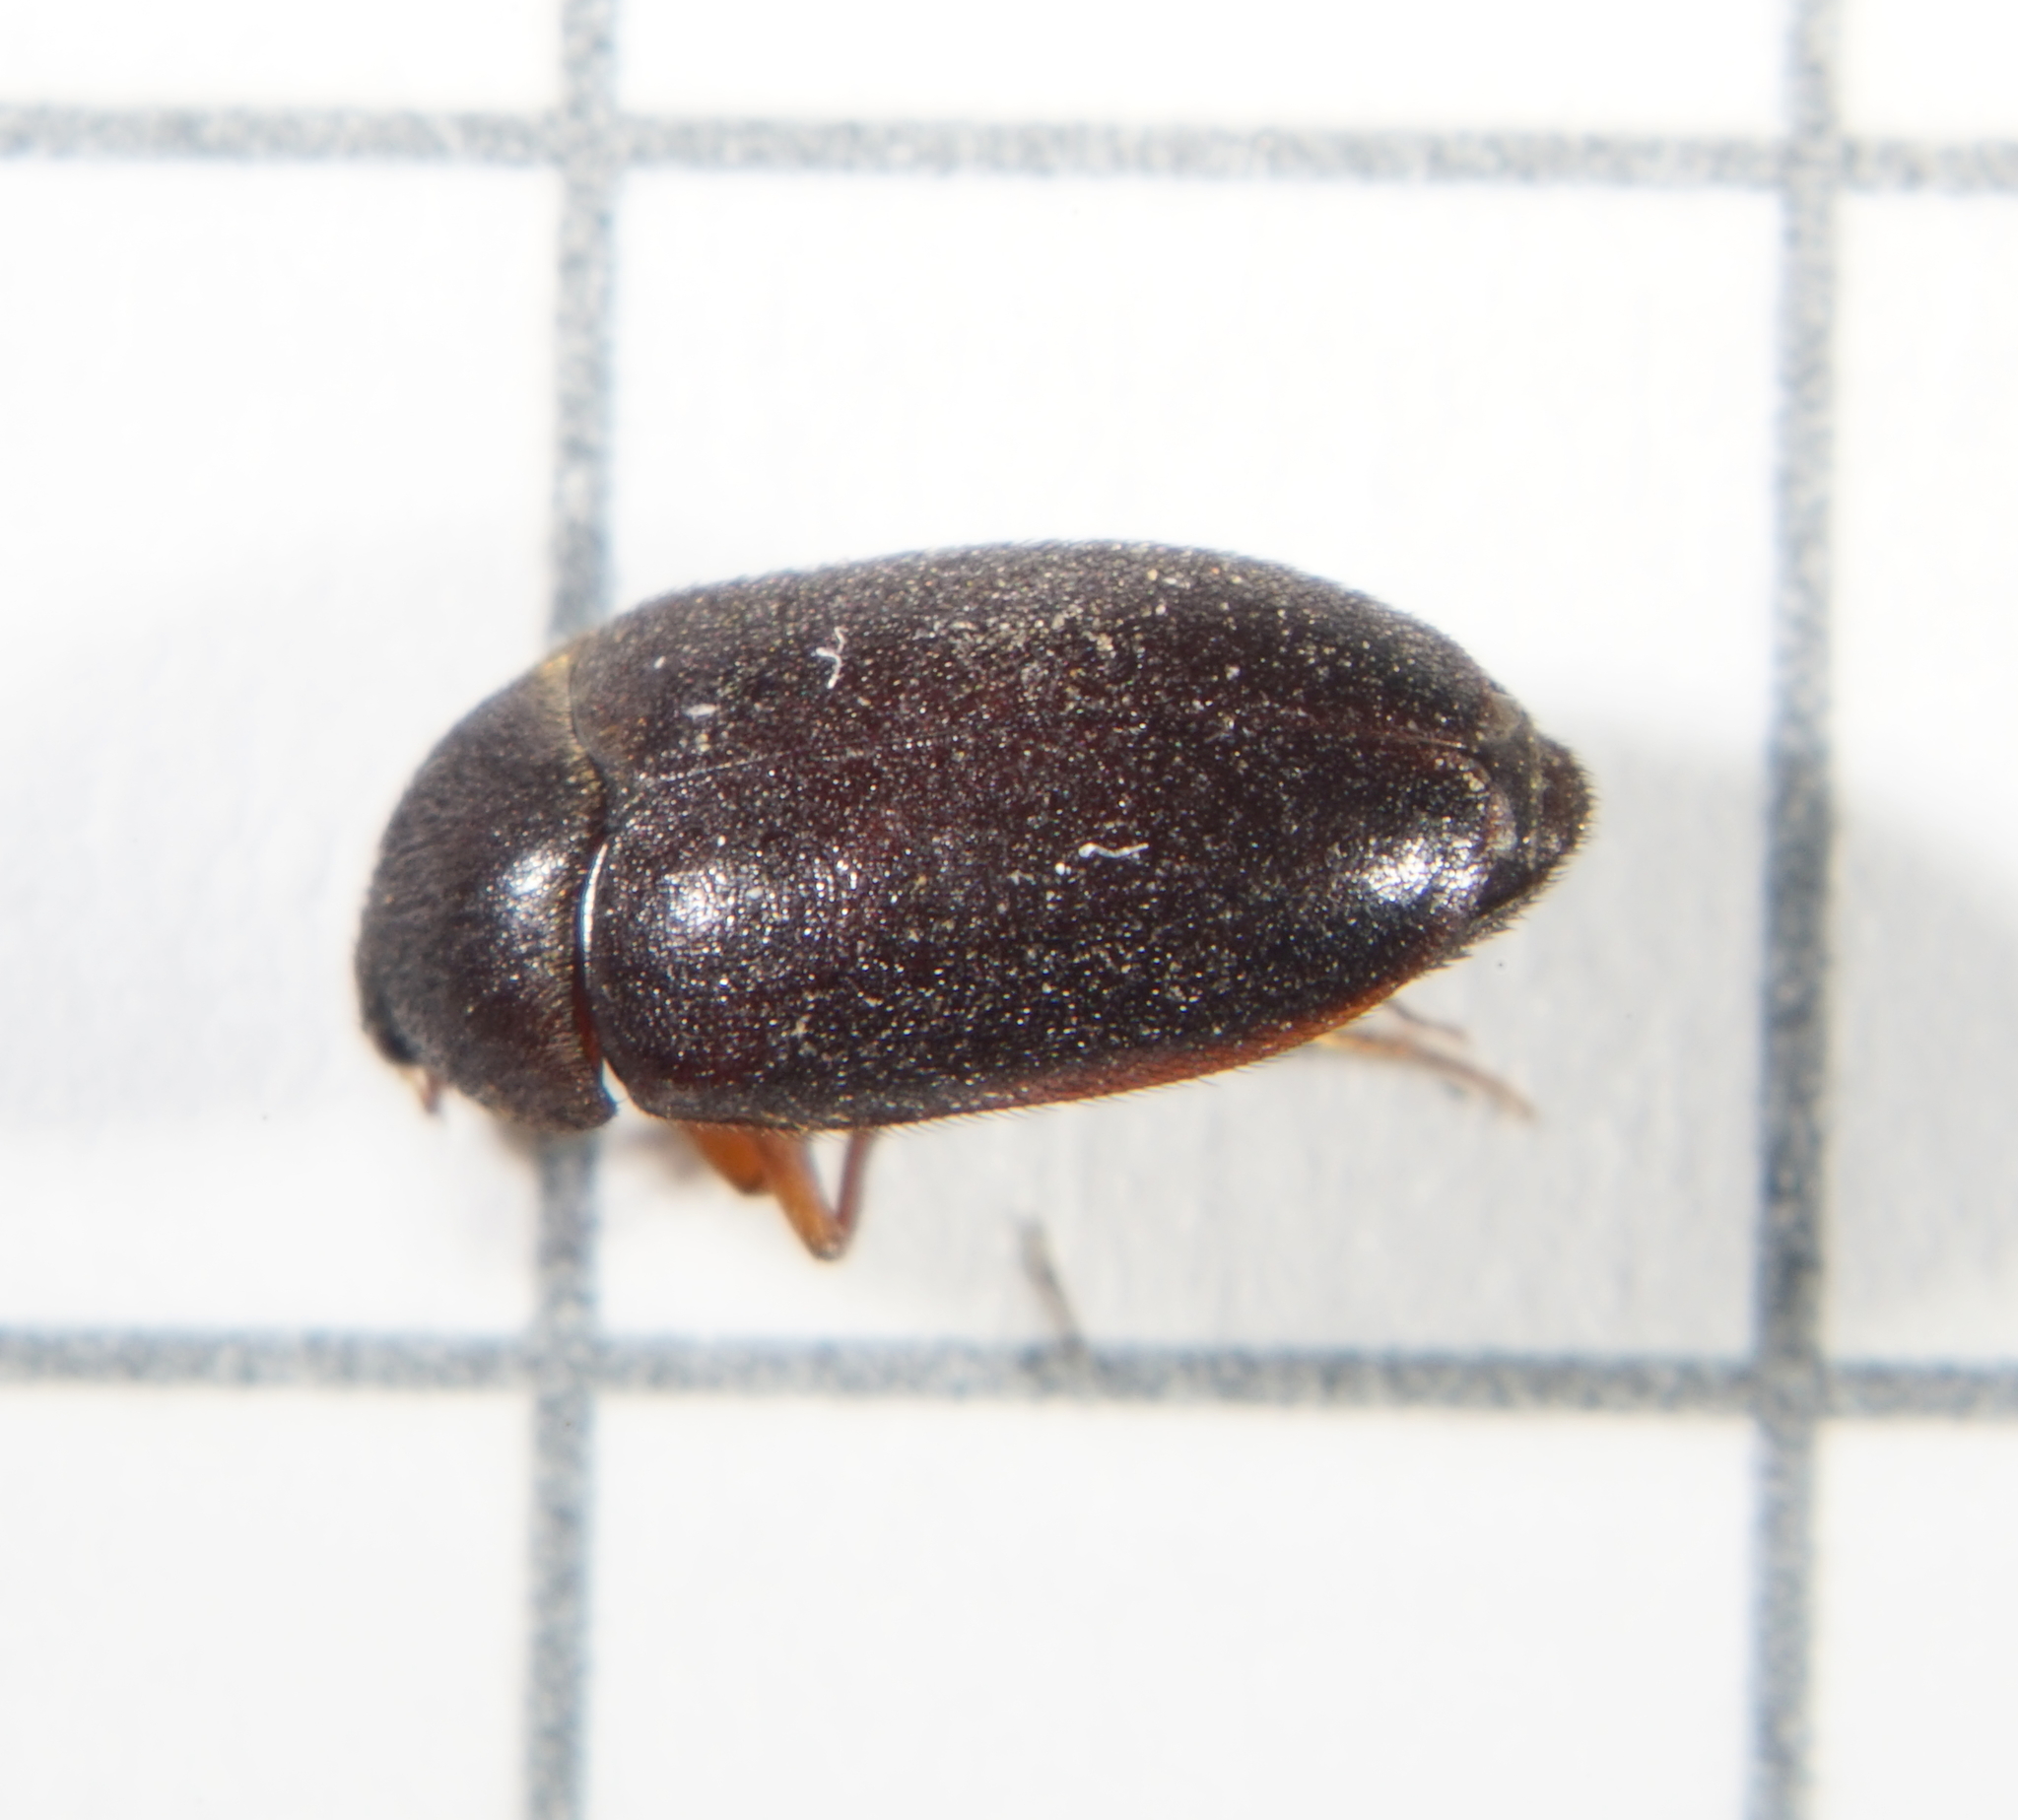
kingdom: Animalia
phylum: Arthropoda
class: Insecta
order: Coleoptera
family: Dermestidae
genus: Attagenus
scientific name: Attagenus unicolor
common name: Black carpet beetle
